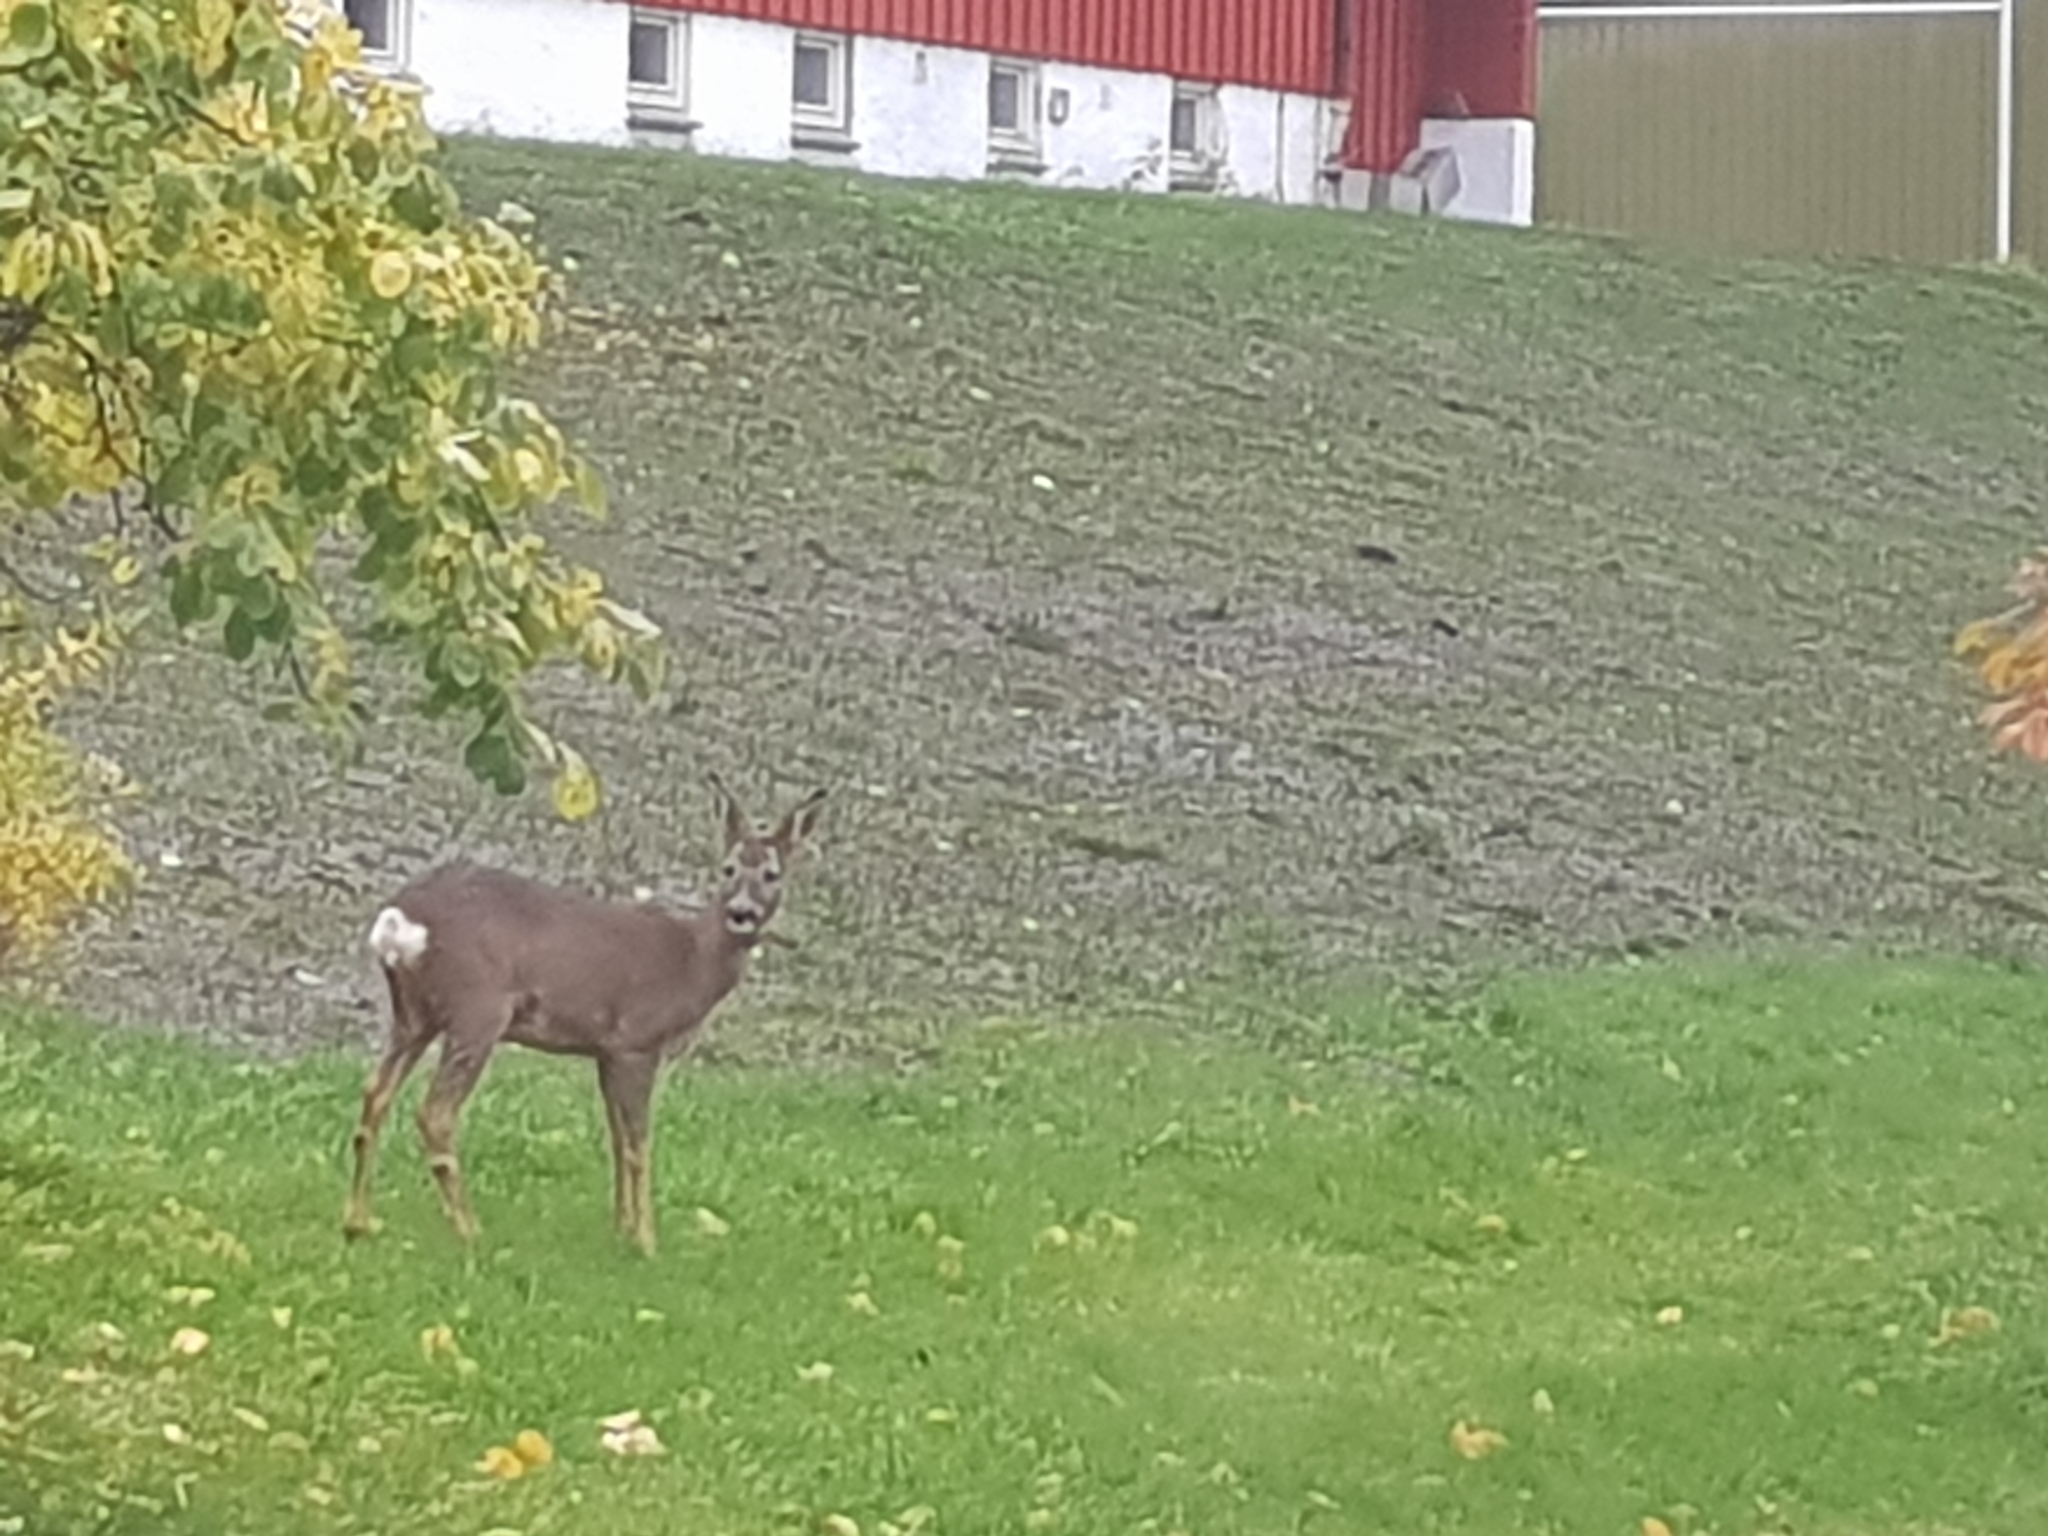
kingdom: Animalia
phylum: Chordata
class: Mammalia
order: Artiodactyla
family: Cervidae
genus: Capreolus
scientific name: Capreolus capreolus
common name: Western roe deer
